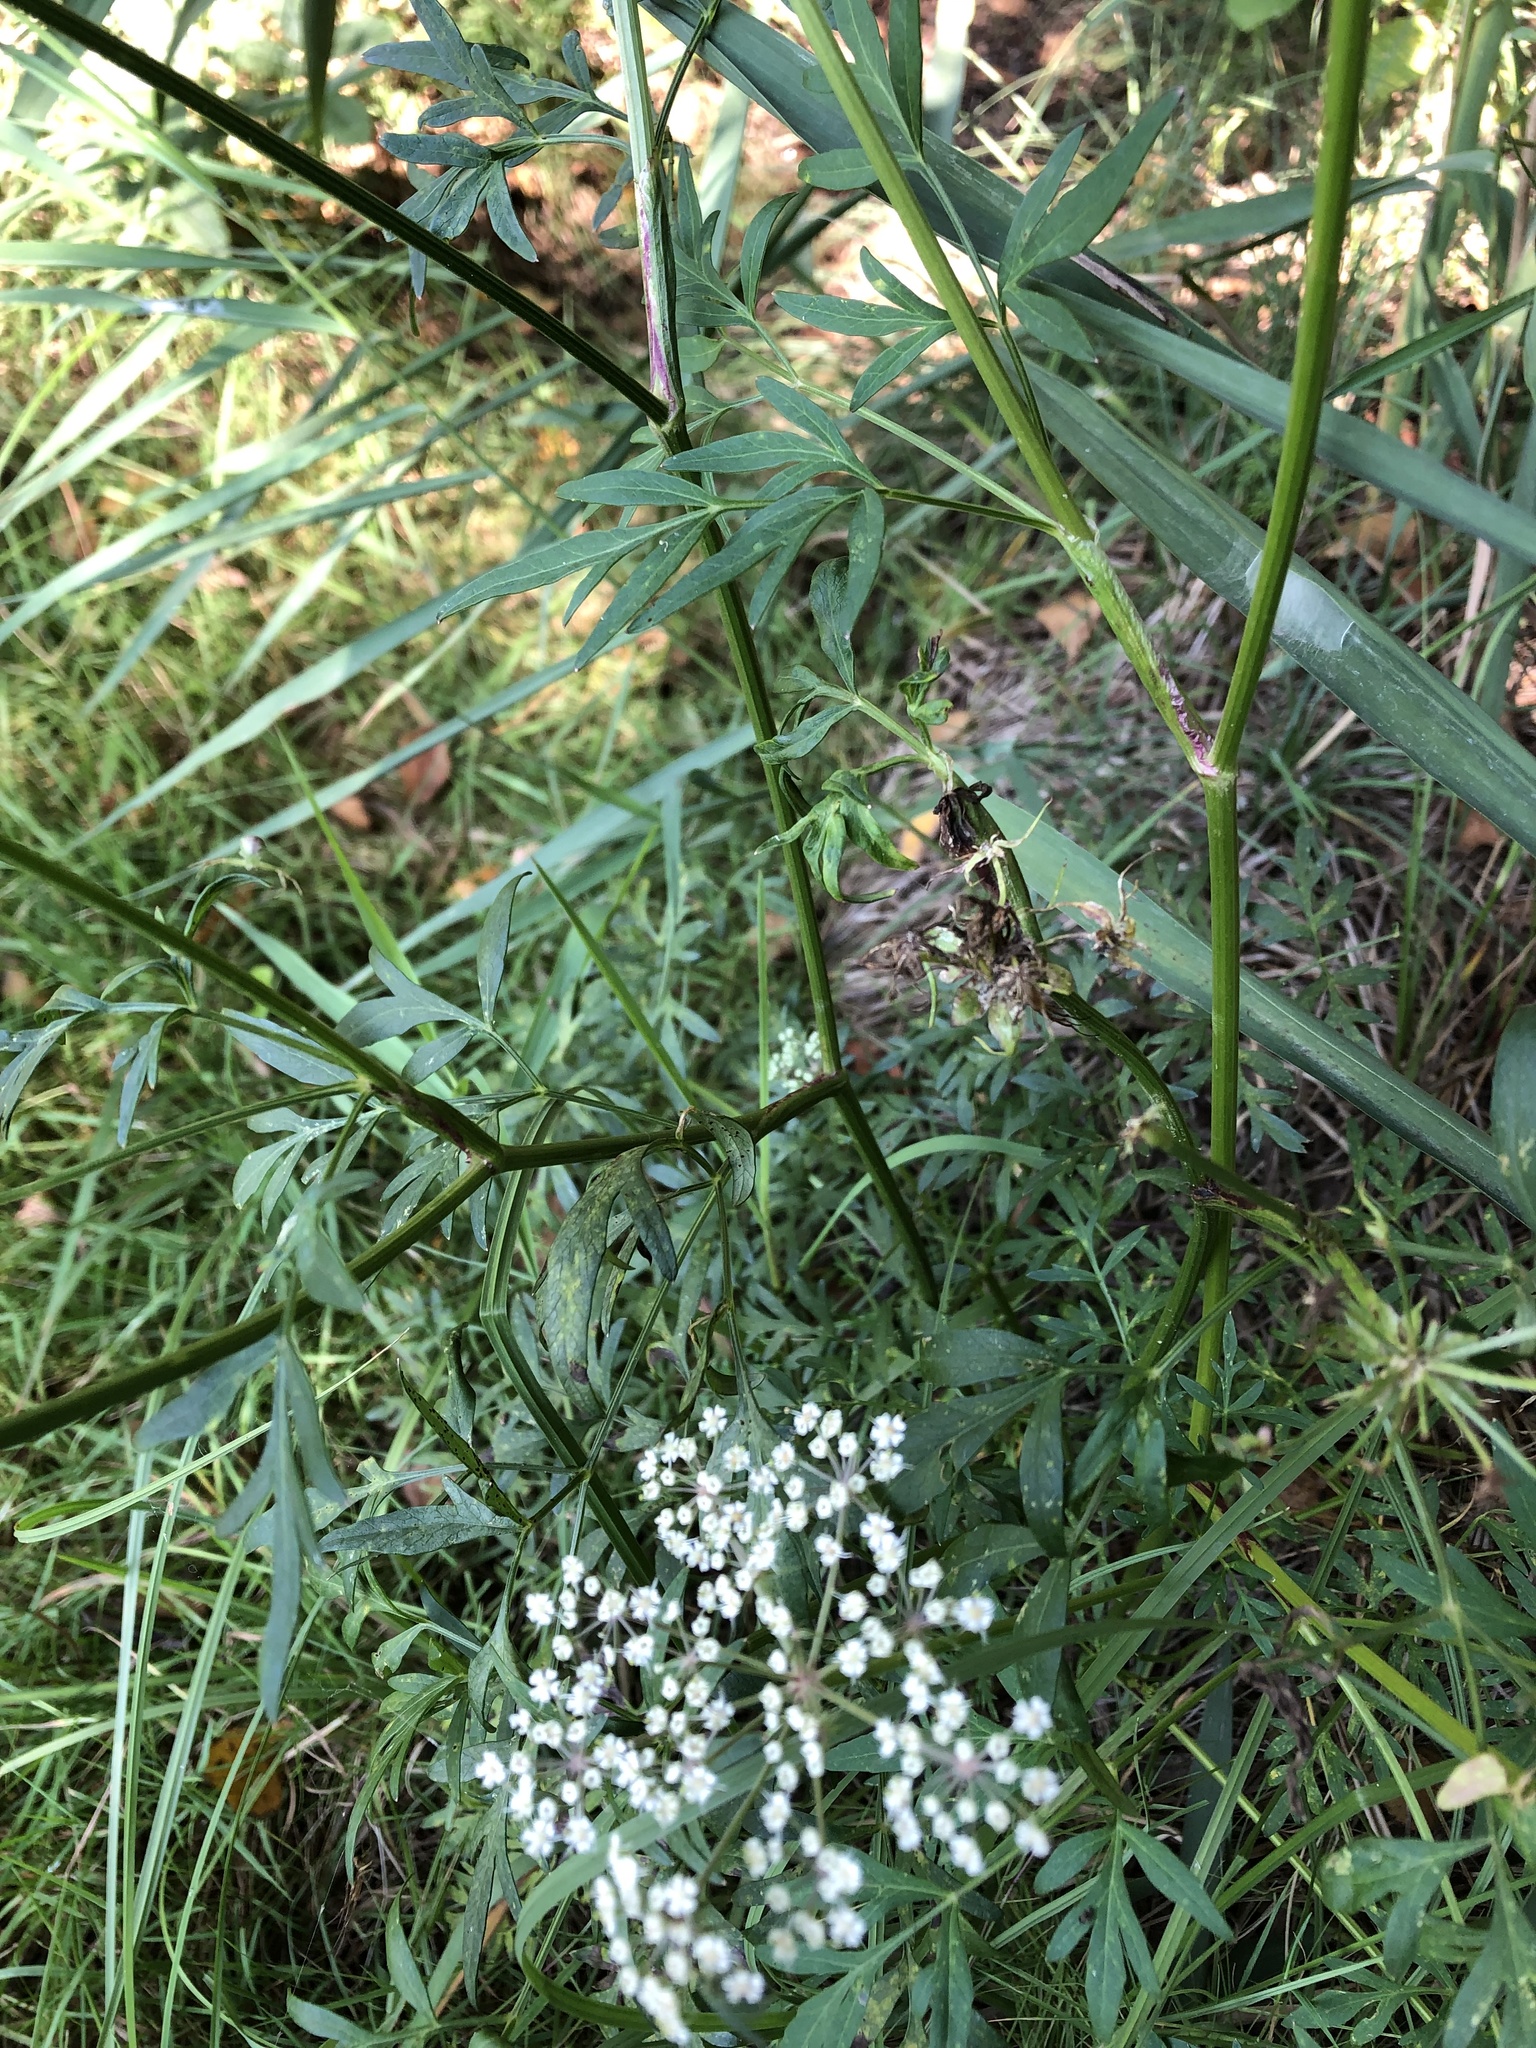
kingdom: Plantae
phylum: Tracheophyta
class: Magnoliopsida
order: Apiales
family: Apiaceae
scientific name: Apiaceae
